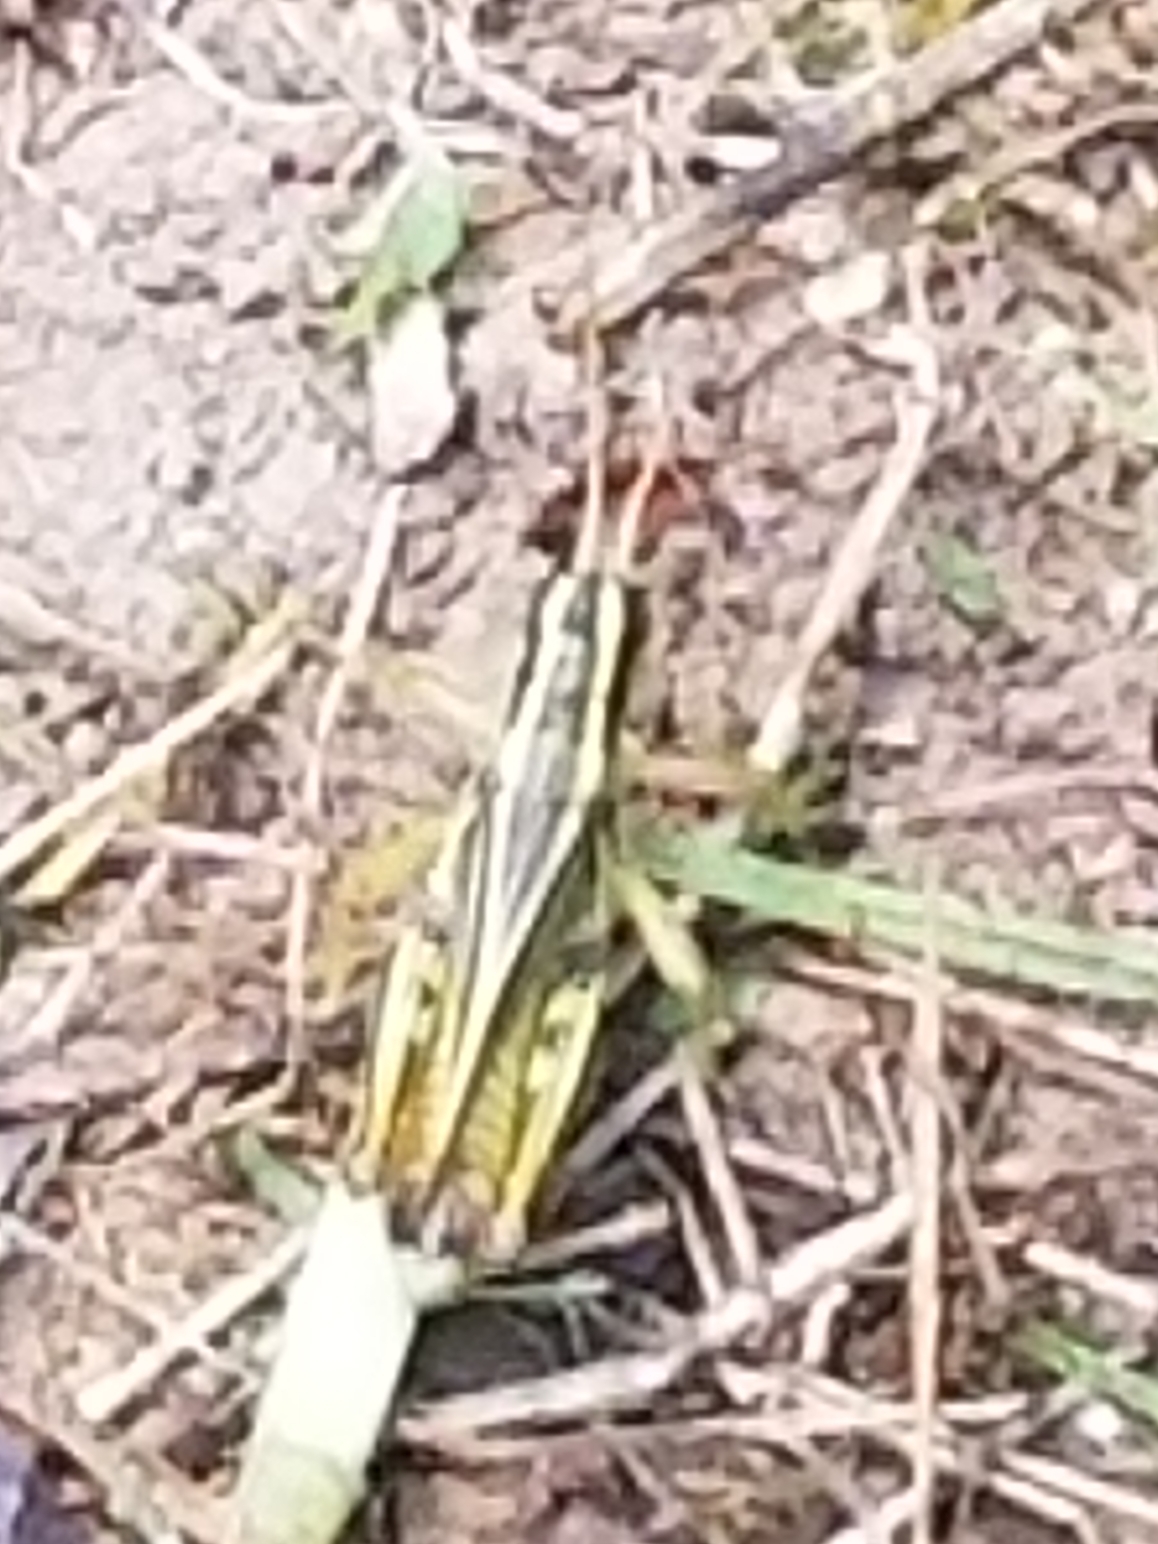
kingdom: Animalia
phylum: Arthropoda
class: Insecta
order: Orthoptera
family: Acrididae
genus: Melanoplus
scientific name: Melanoplus bivittatus
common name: Two-striped grasshopper
